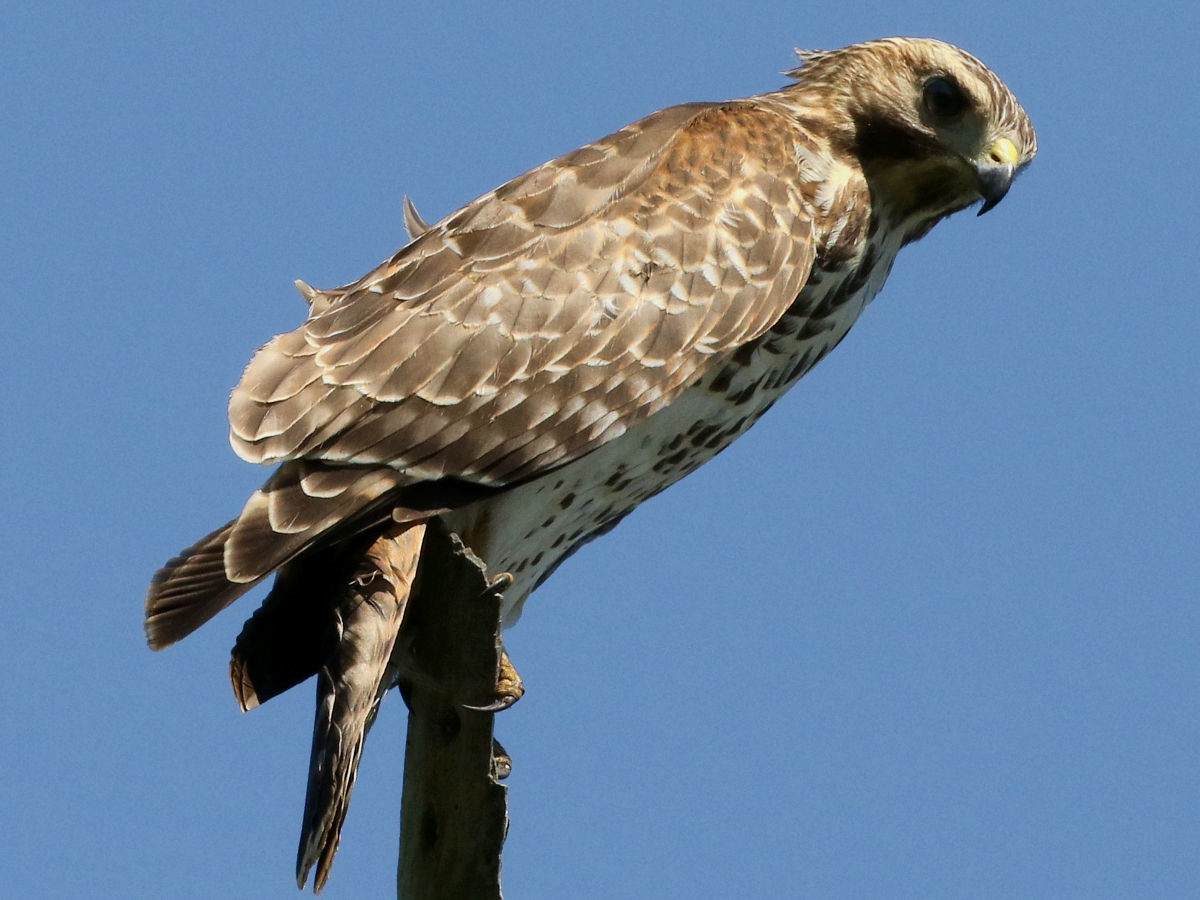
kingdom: Animalia
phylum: Chordata
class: Aves
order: Accipitriformes
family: Accipitridae
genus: Buteo
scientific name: Buteo lineatus
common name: Red-shouldered hawk
